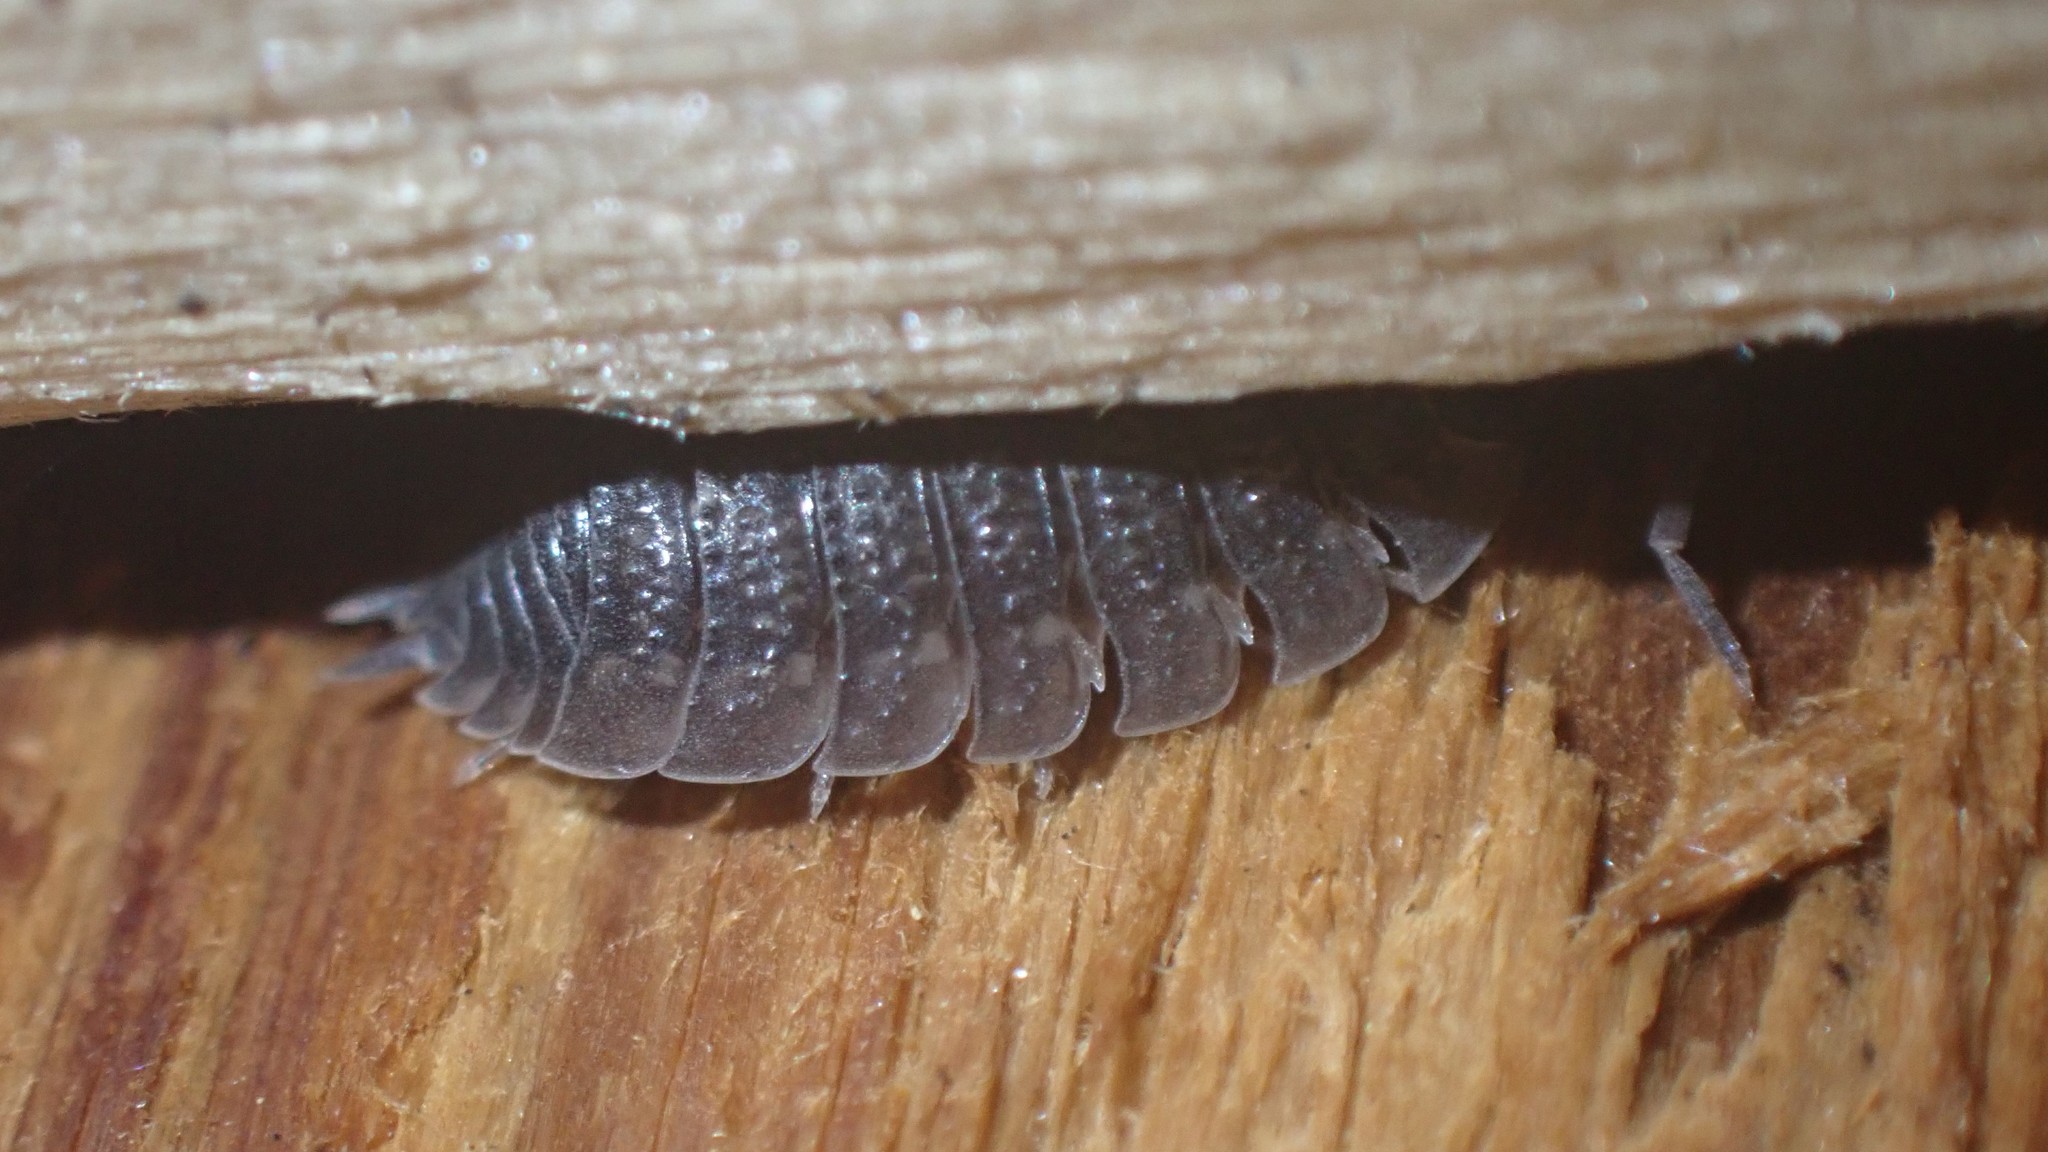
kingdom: Animalia
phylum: Arthropoda
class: Malacostraca
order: Isopoda
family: Porcellionidae
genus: Porcellio
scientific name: Porcellio scaber
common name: Common rough woodlouse
